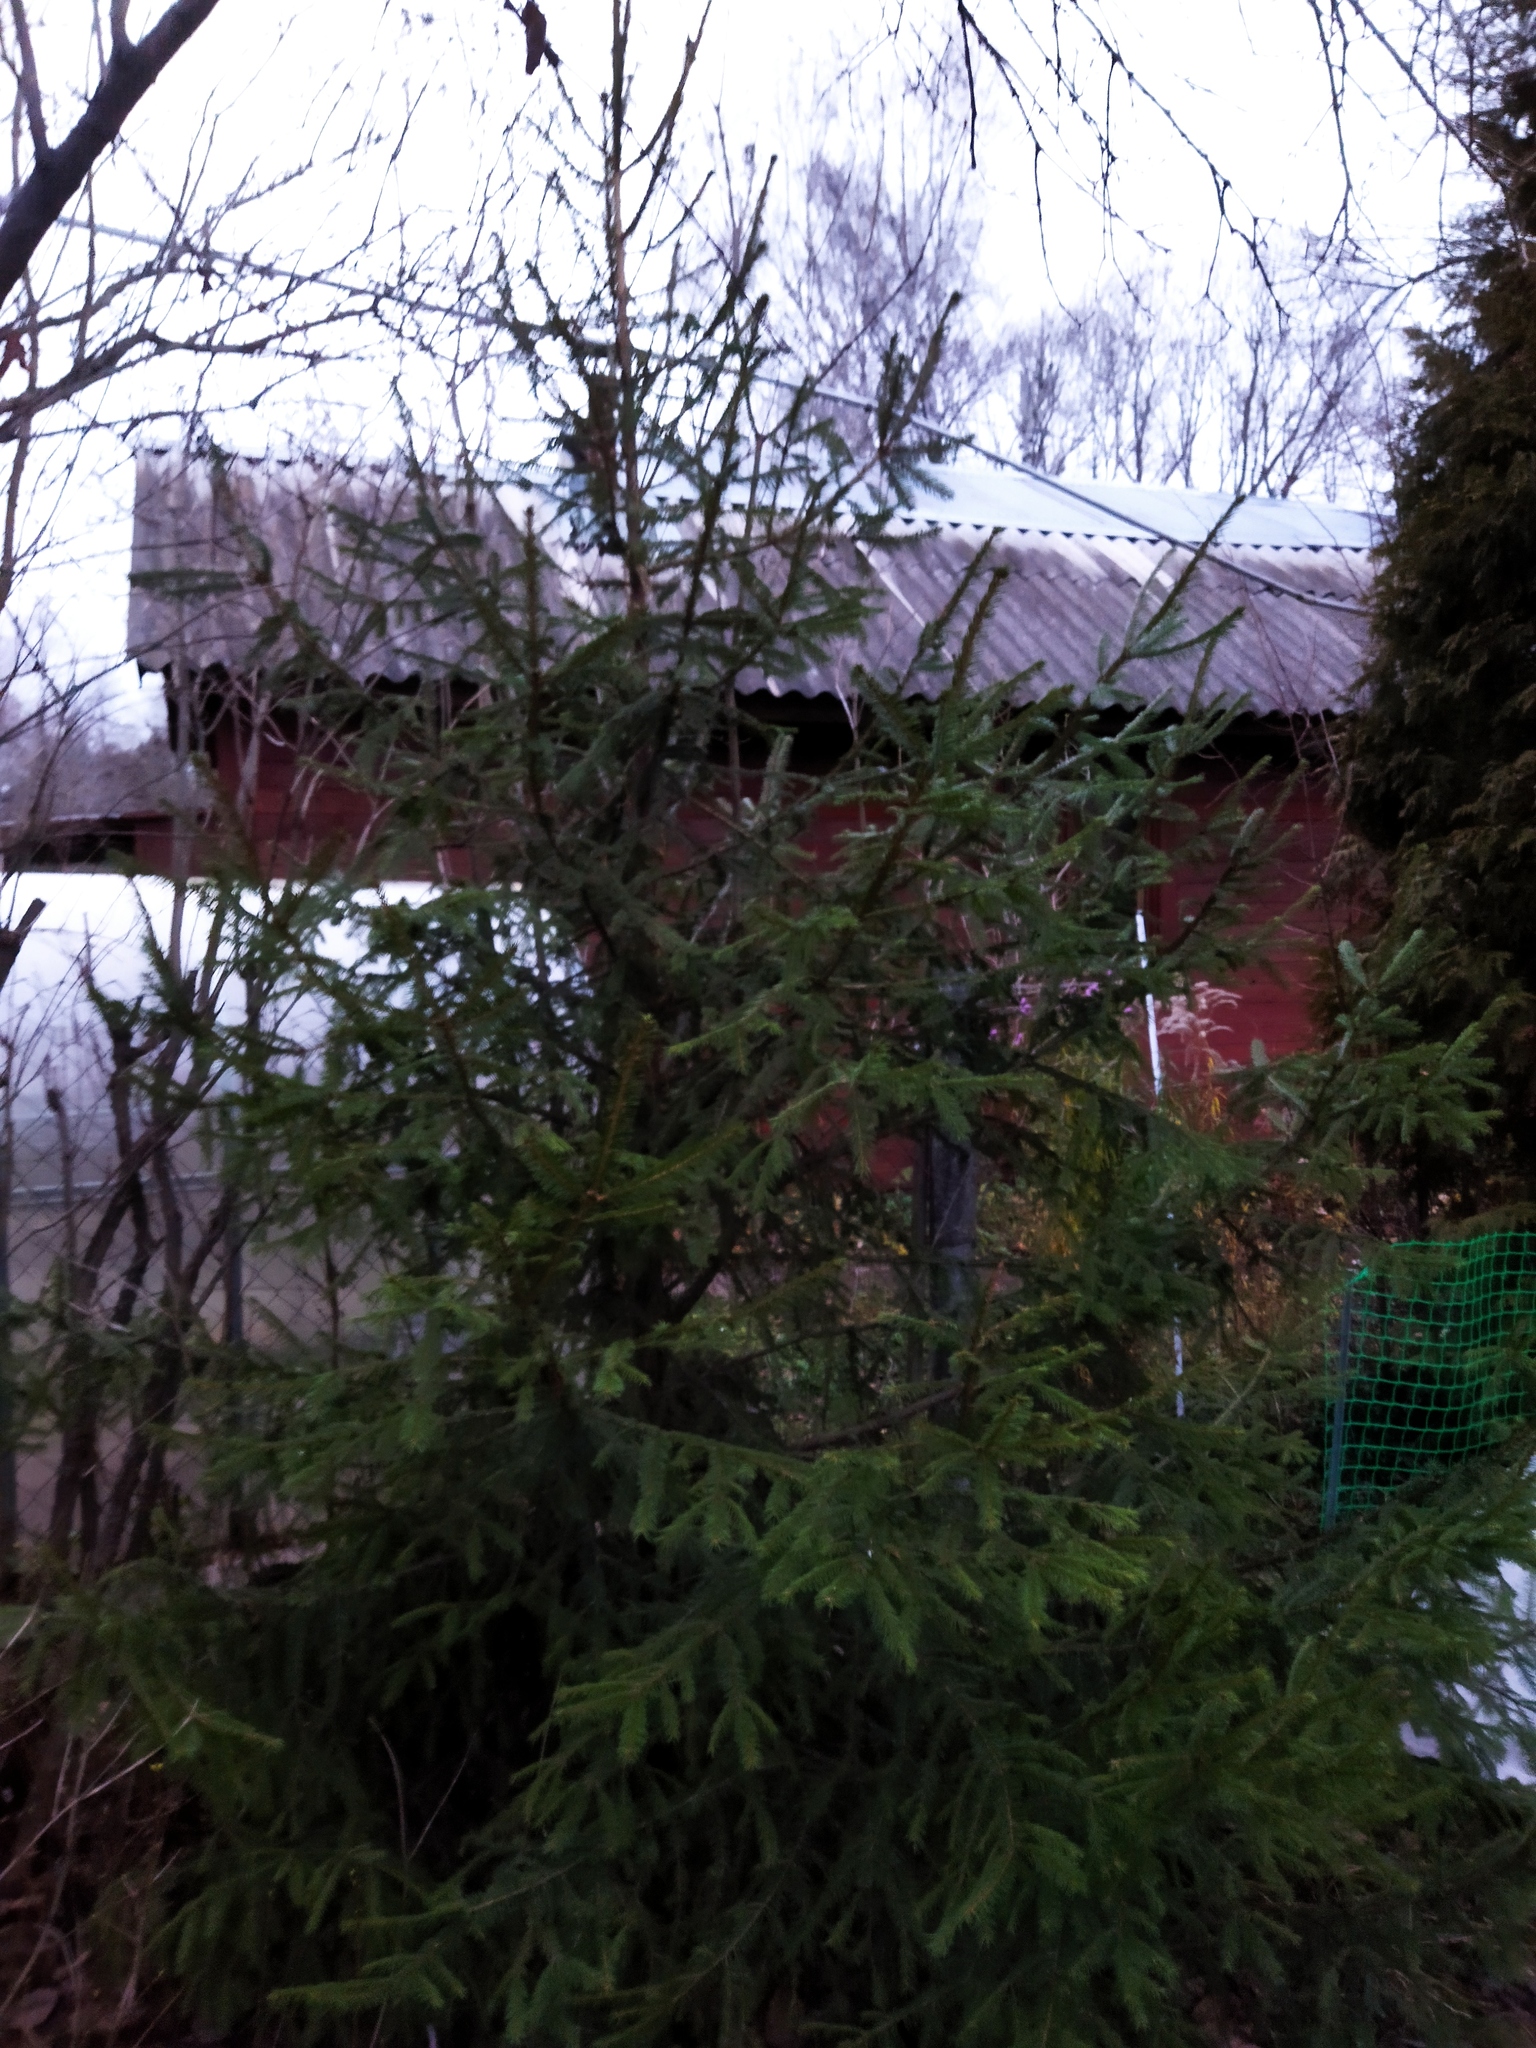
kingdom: Plantae
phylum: Tracheophyta
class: Pinopsida
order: Pinales
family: Pinaceae
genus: Picea
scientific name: Picea abies
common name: Norway spruce
